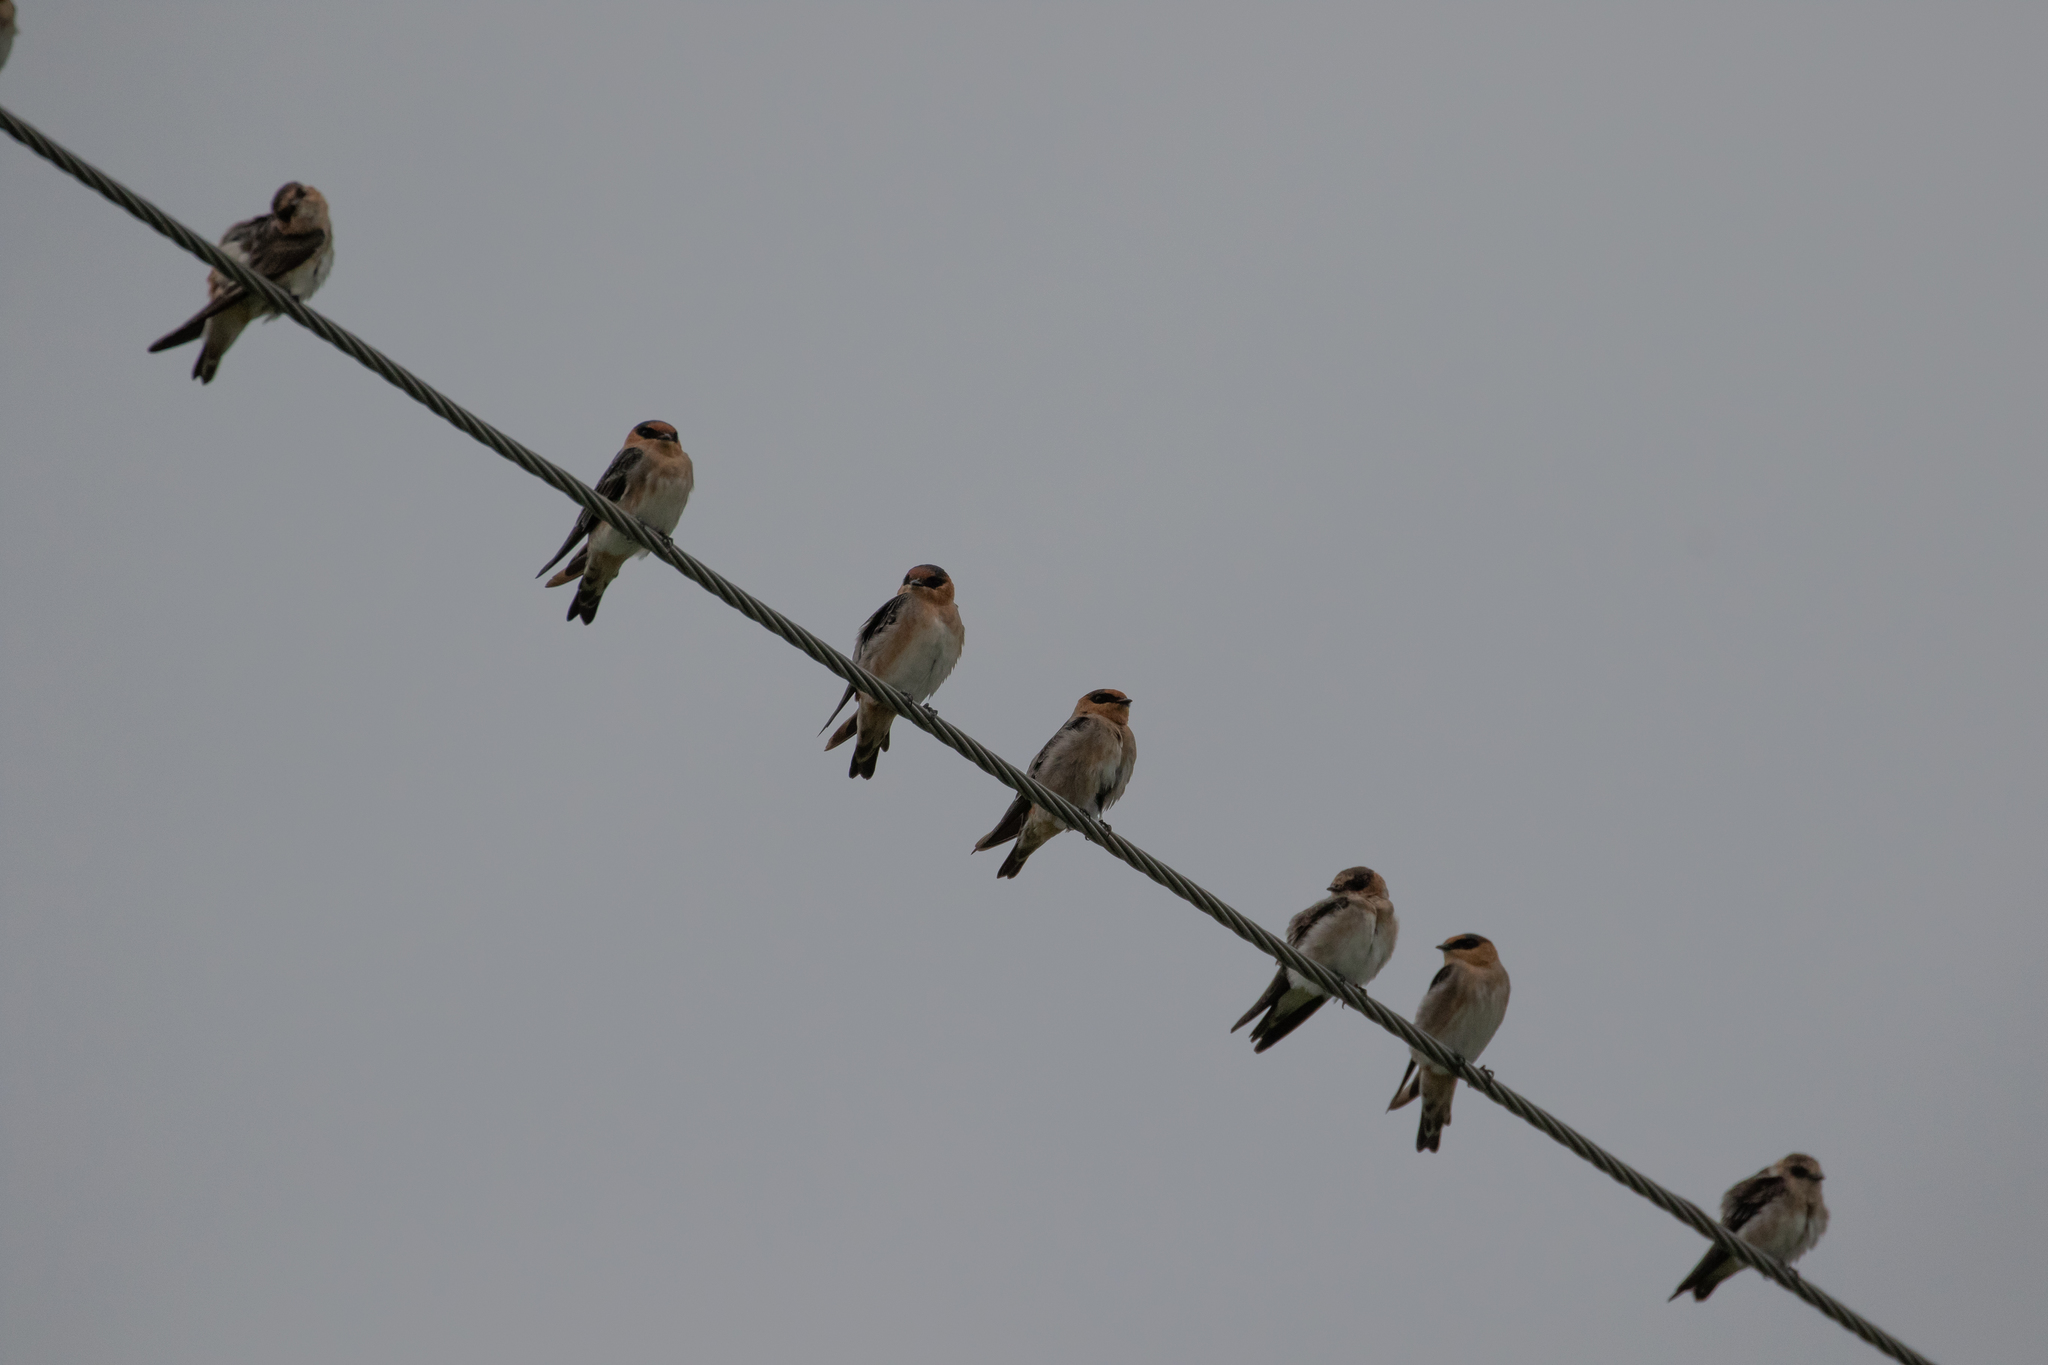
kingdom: Animalia
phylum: Chordata
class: Aves
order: Passeriformes
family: Hirundinidae
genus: Petrochelidon
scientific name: Petrochelidon fulva
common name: Cave swallow
